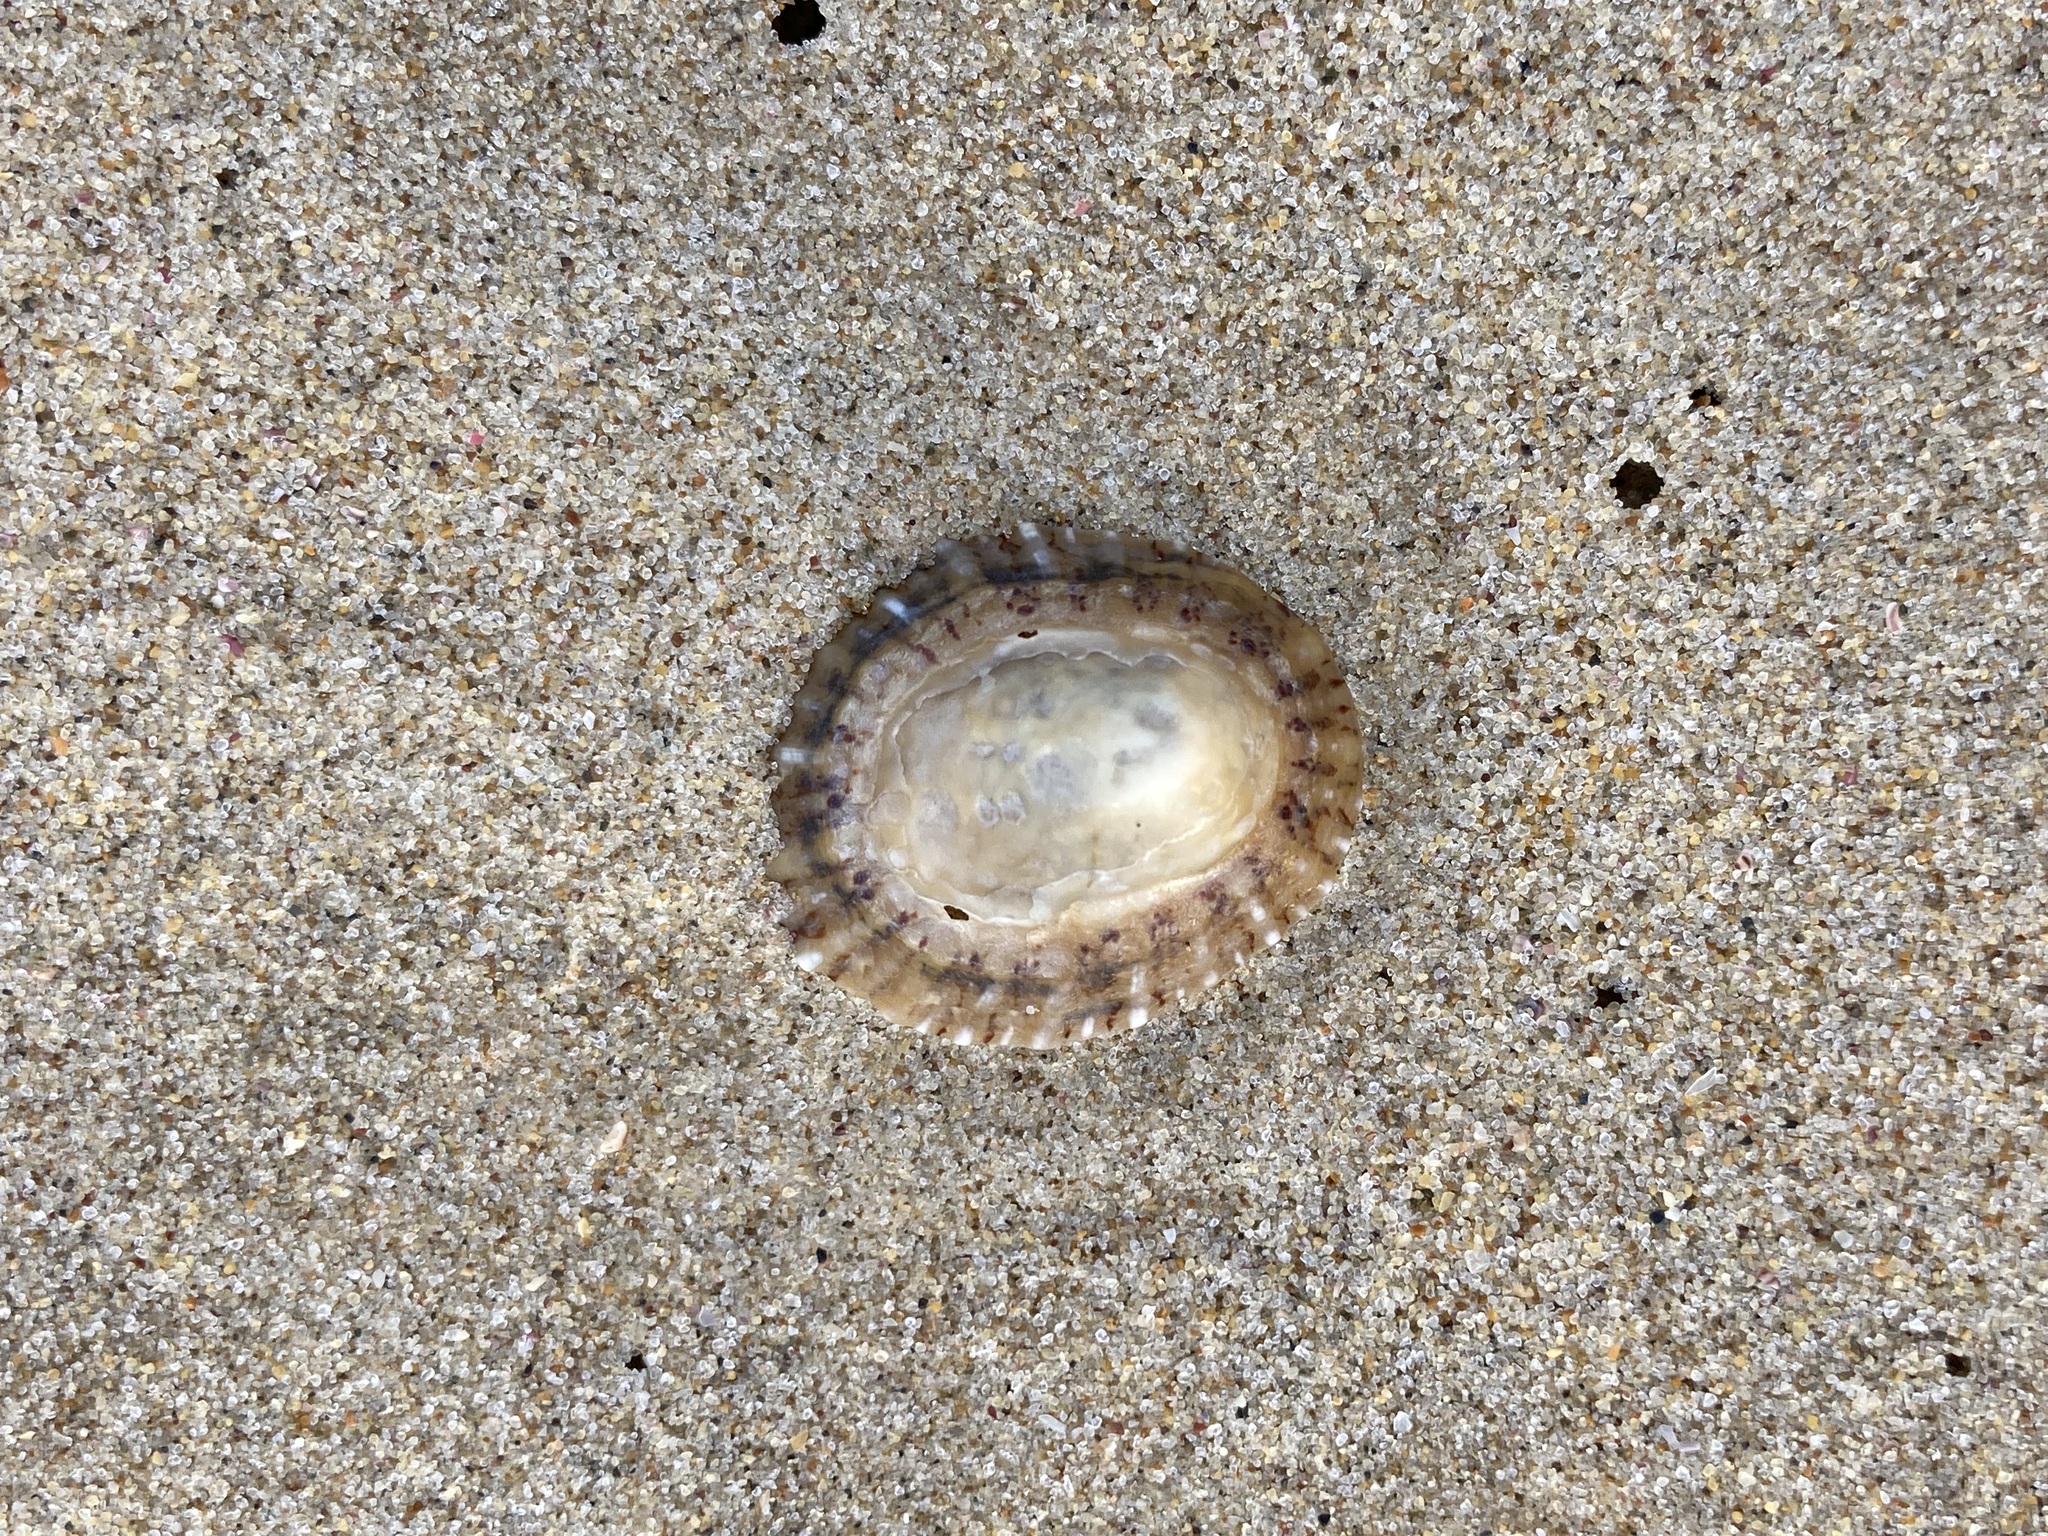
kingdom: Animalia
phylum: Mollusca
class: Gastropoda
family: Nacellidae
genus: Cellana
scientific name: Cellana tramoserica
